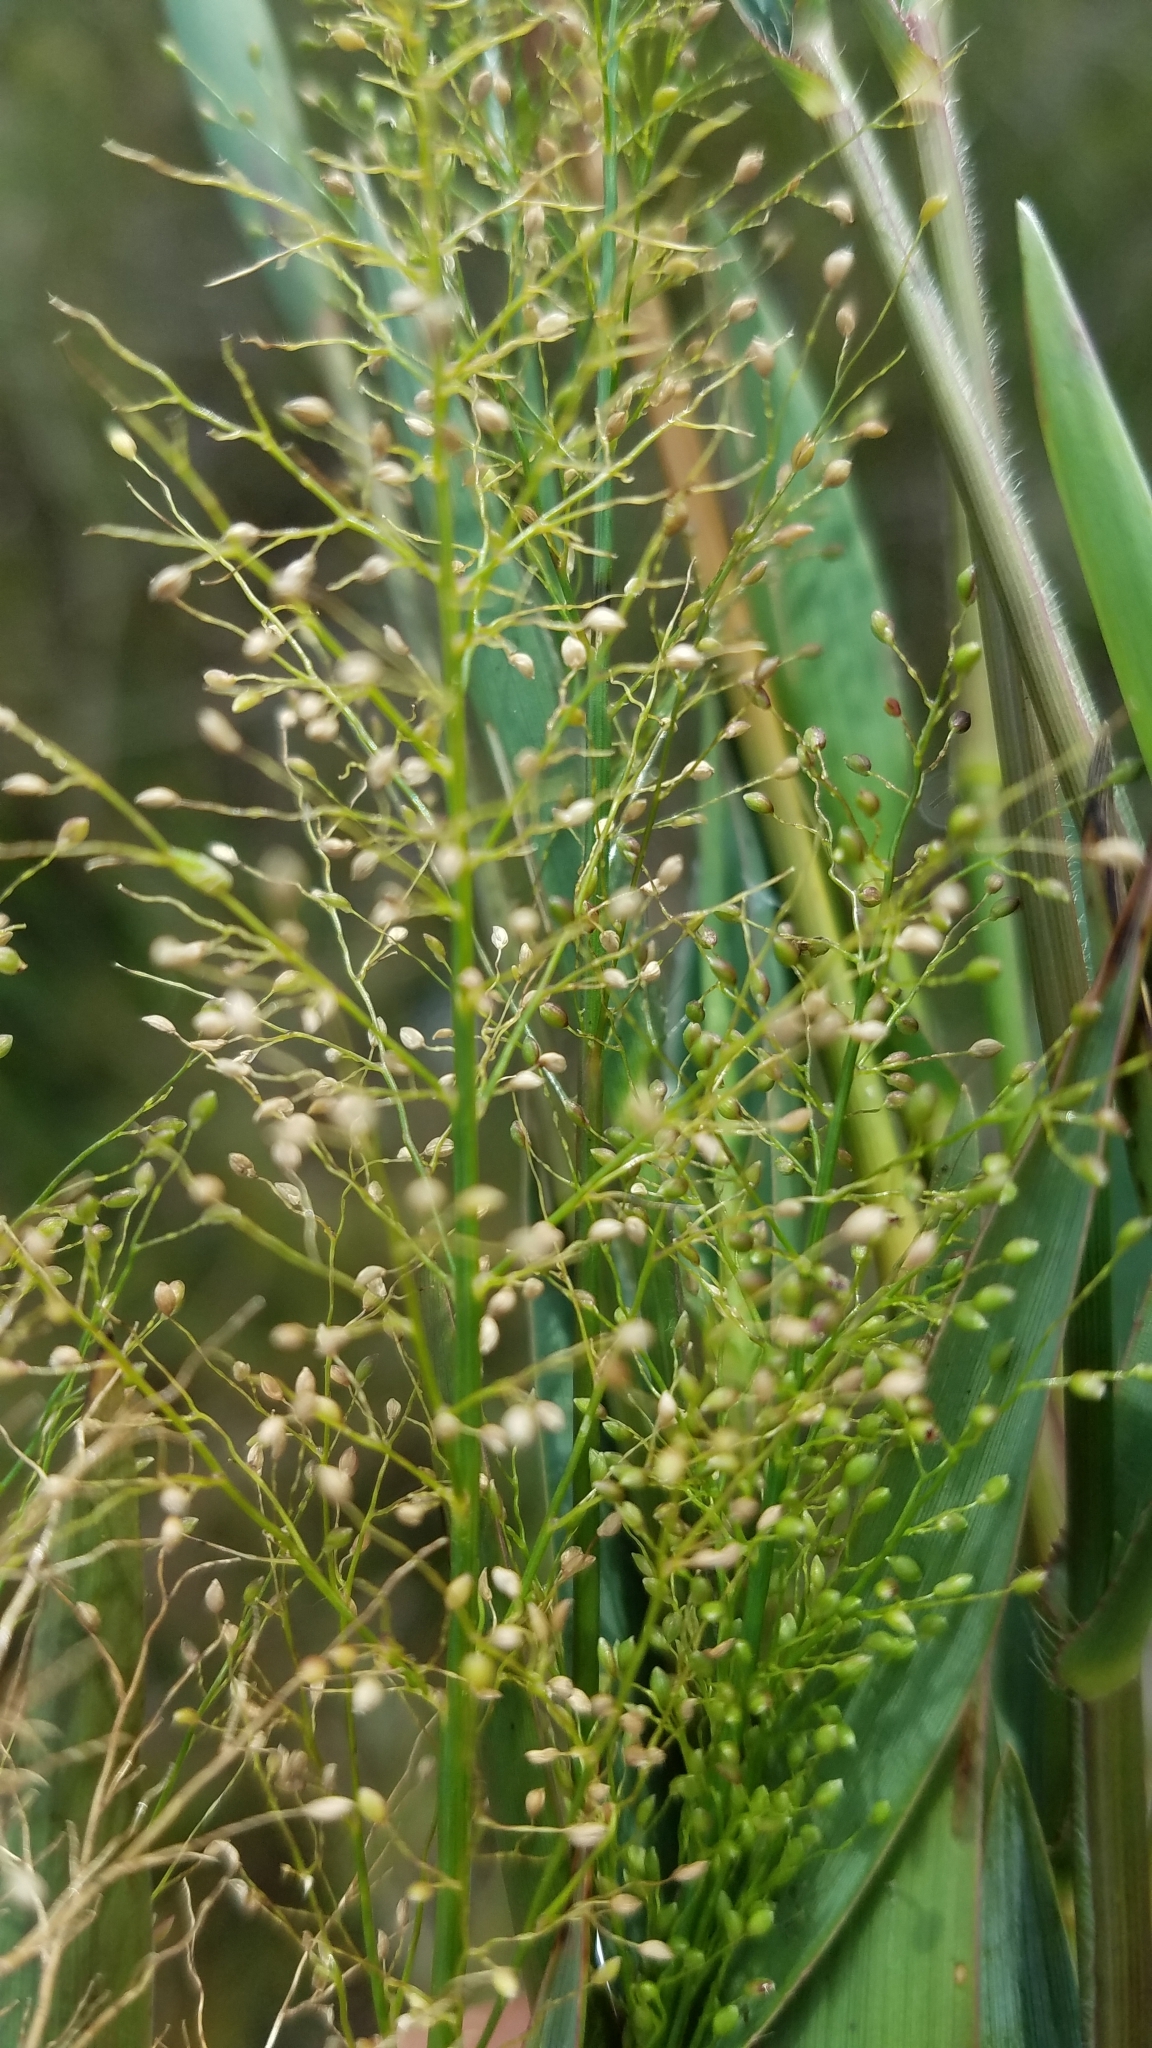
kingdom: Plantae
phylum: Tracheophyta
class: Liliopsida
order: Poales
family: Poaceae
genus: Dichanthelium
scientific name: Dichanthelium erectifolium
